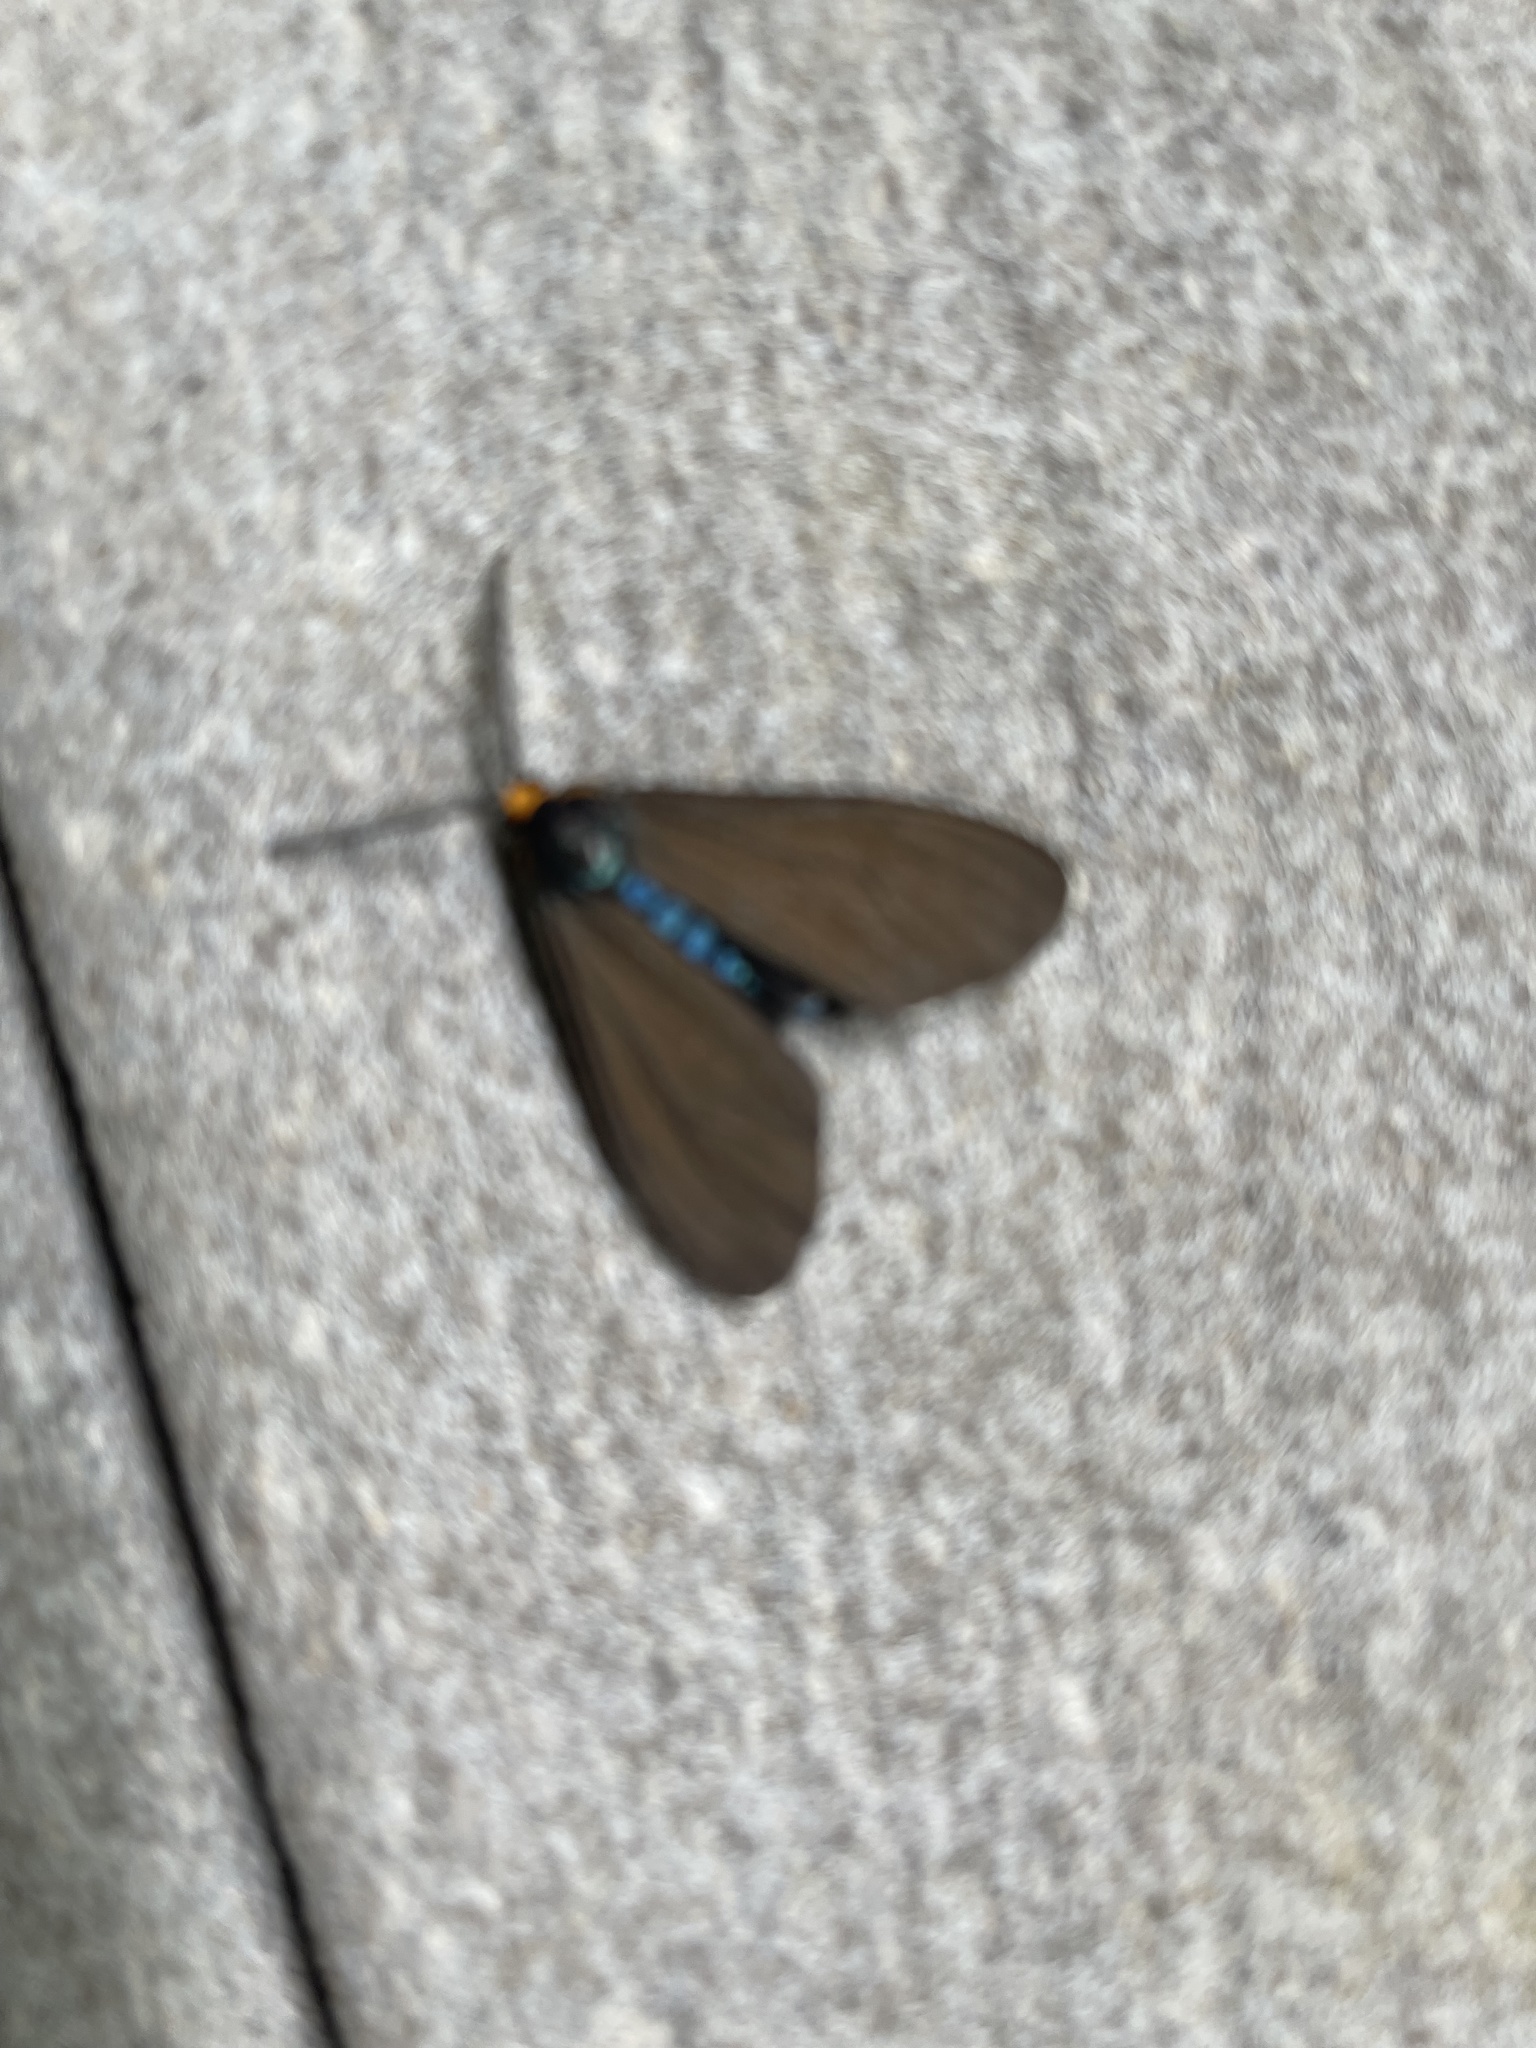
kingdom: Animalia
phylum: Arthropoda
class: Insecta
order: Lepidoptera
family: Erebidae
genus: Cisseps
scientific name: Cisseps fulvicollis
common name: Yellow-collared scape moth
